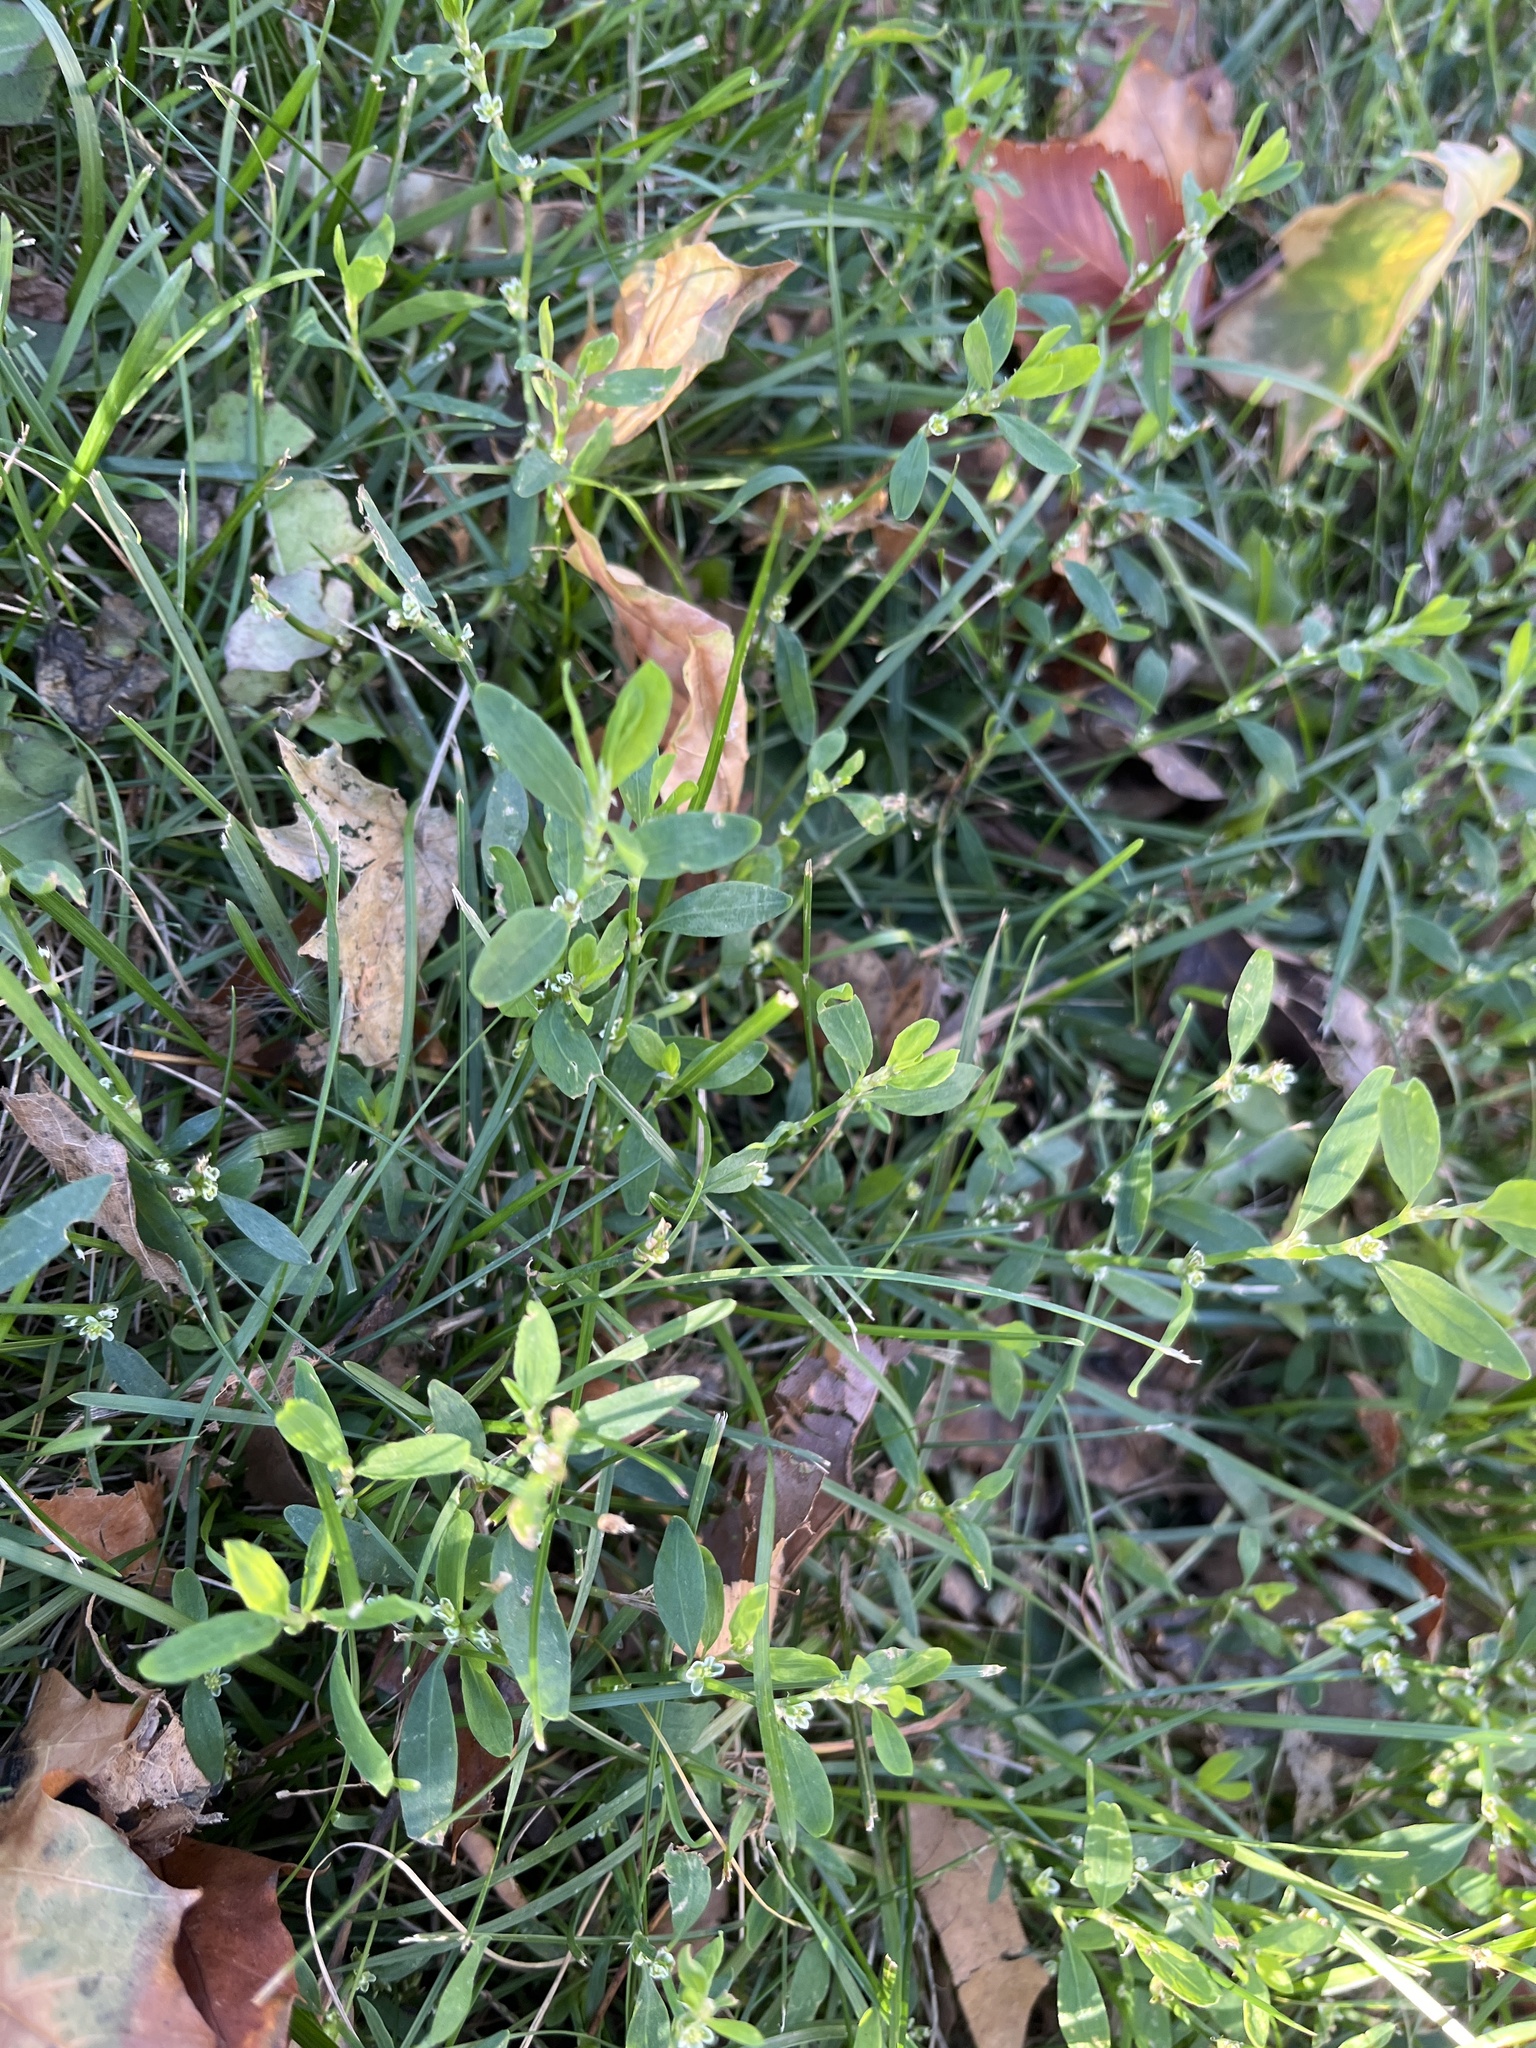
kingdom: Plantae
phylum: Tracheophyta
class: Magnoliopsida
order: Caryophyllales
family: Polygonaceae
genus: Polygonum
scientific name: Polygonum aviculare
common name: Prostrate knotweed
